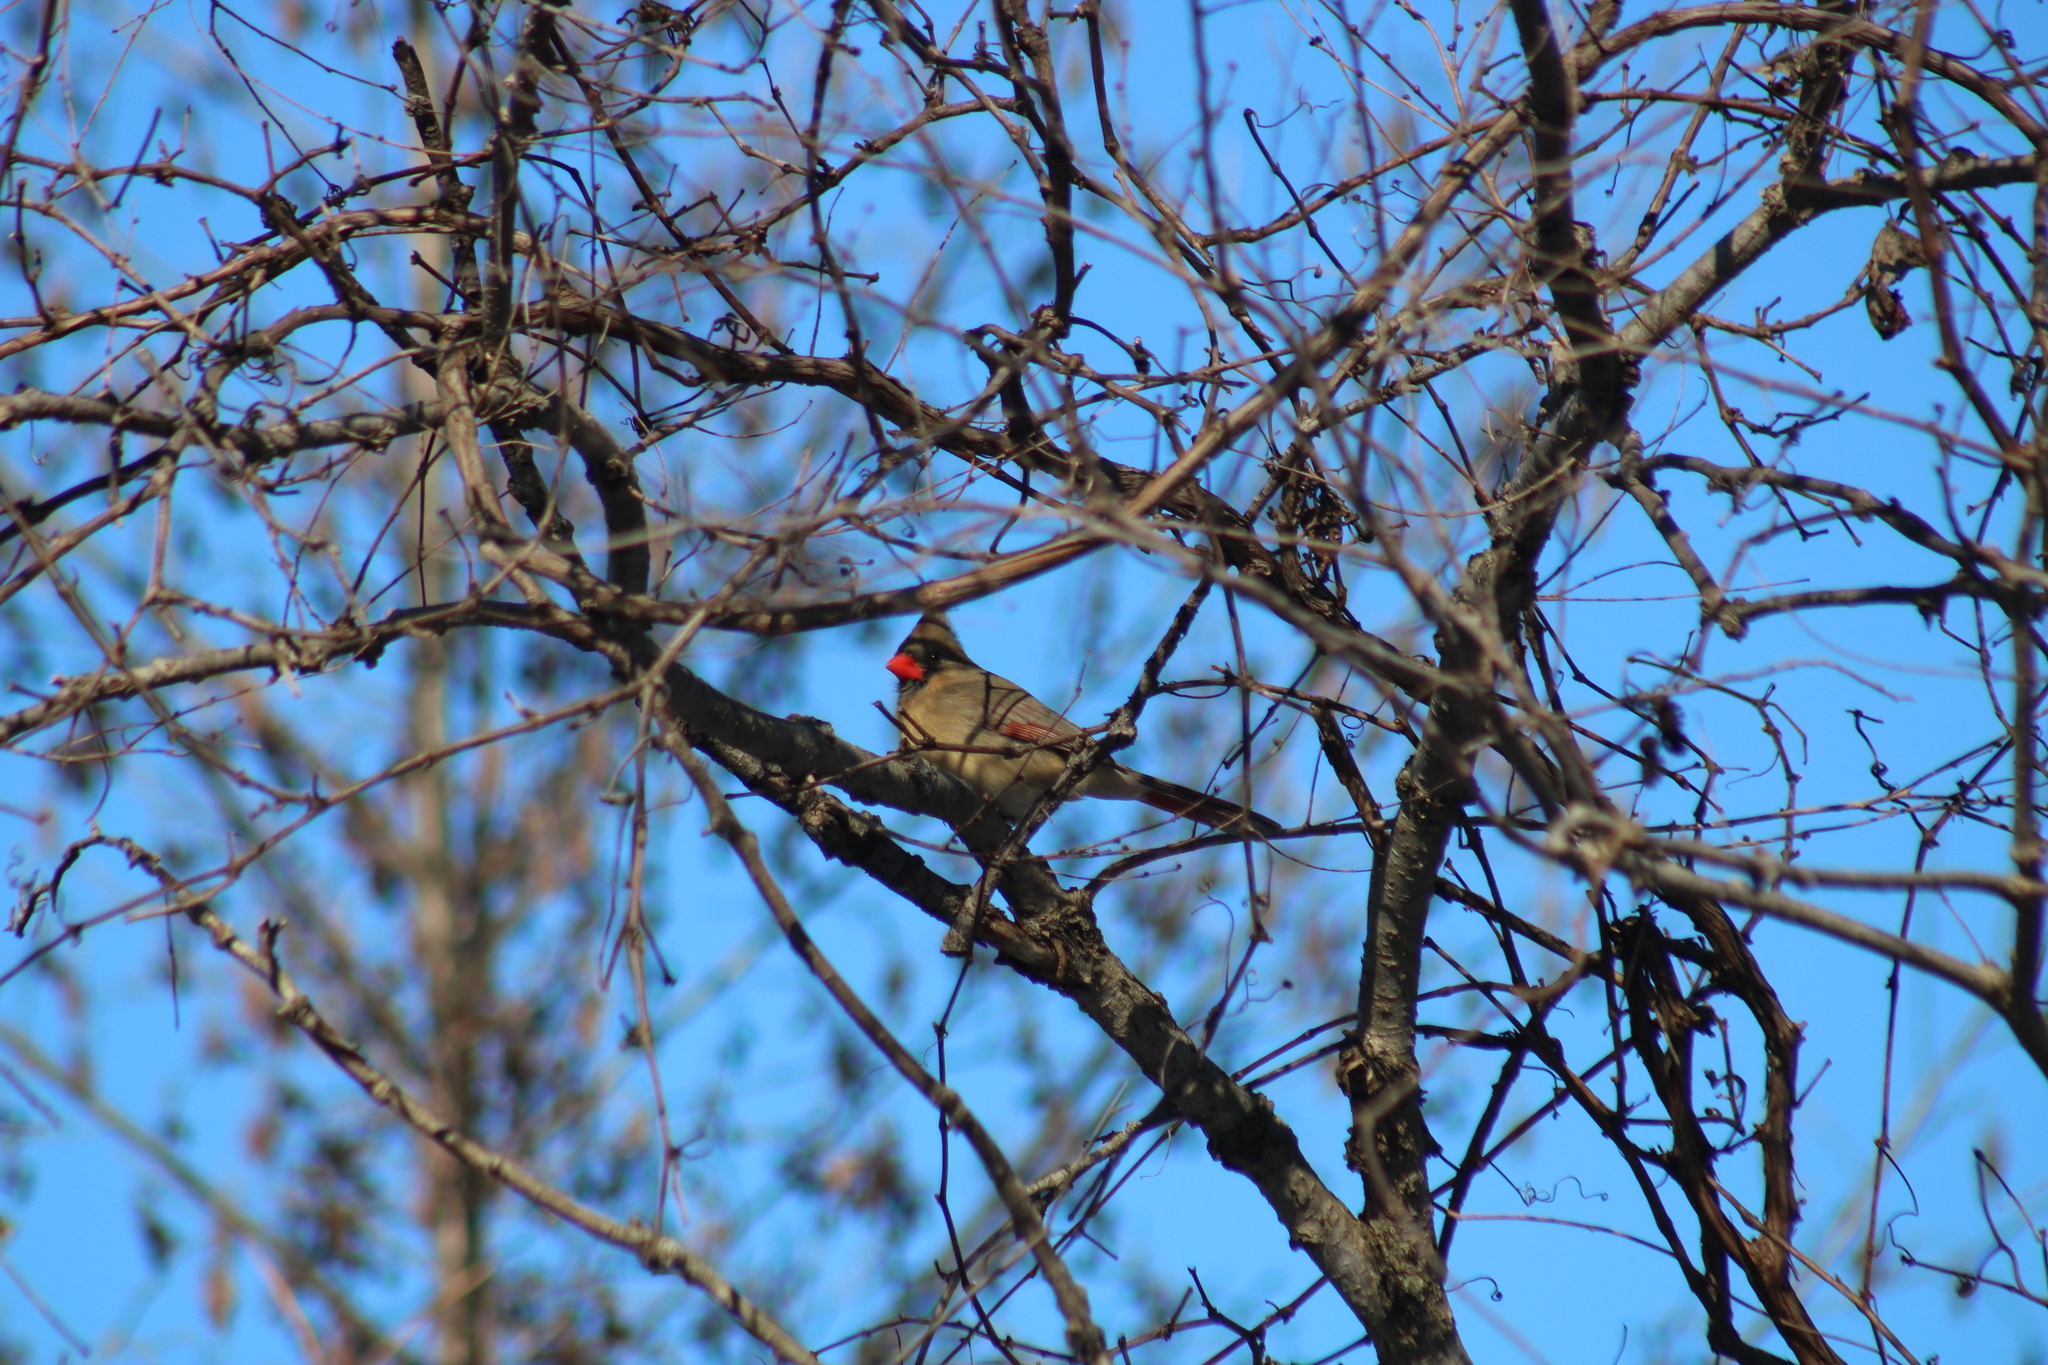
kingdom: Animalia
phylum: Chordata
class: Aves
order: Passeriformes
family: Cardinalidae
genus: Cardinalis
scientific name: Cardinalis cardinalis
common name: Northern cardinal
